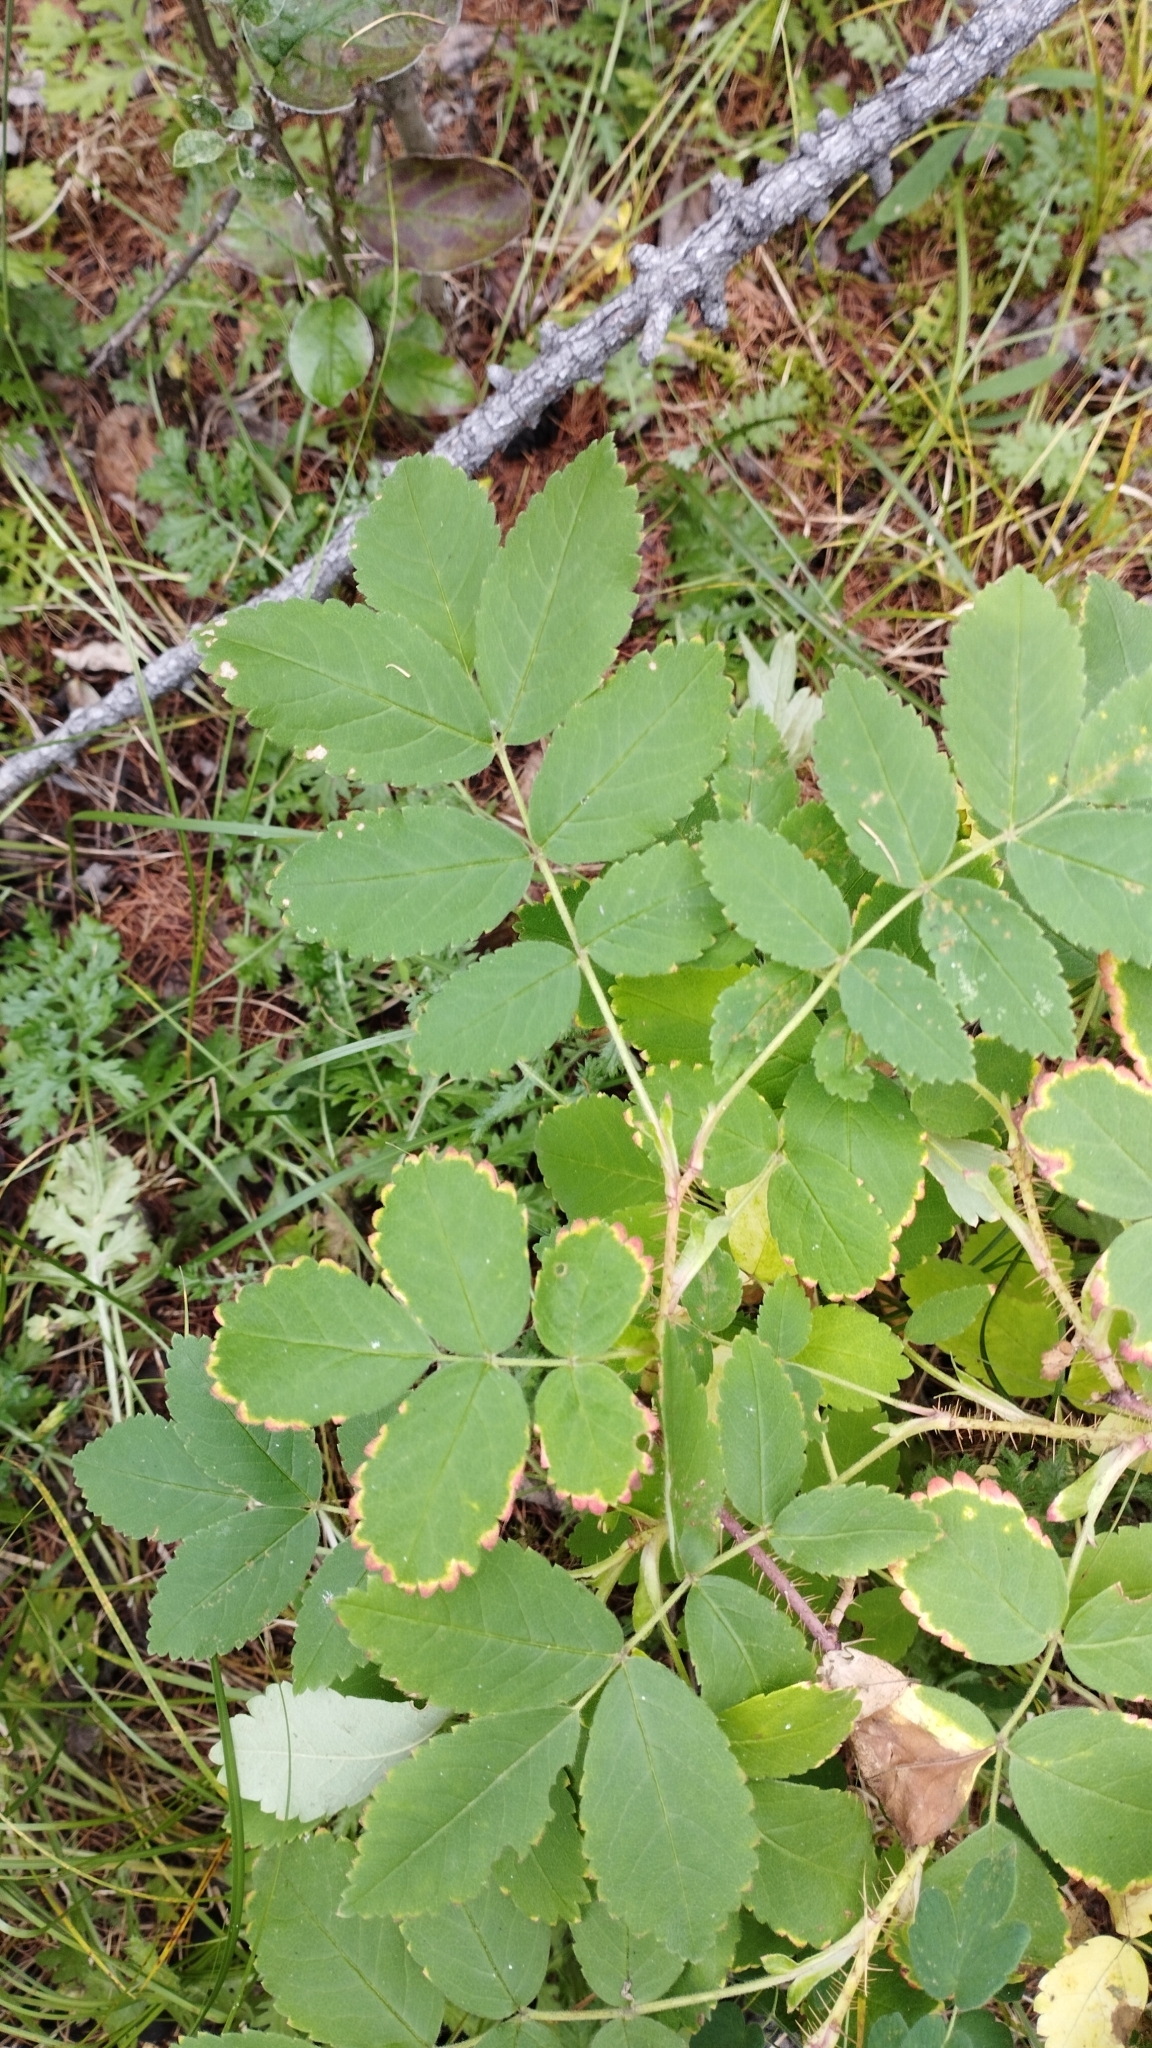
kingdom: Plantae
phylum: Tracheophyta
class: Magnoliopsida
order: Rosales
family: Rosaceae
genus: Rosa
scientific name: Rosa acicularis
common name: Prickly rose
